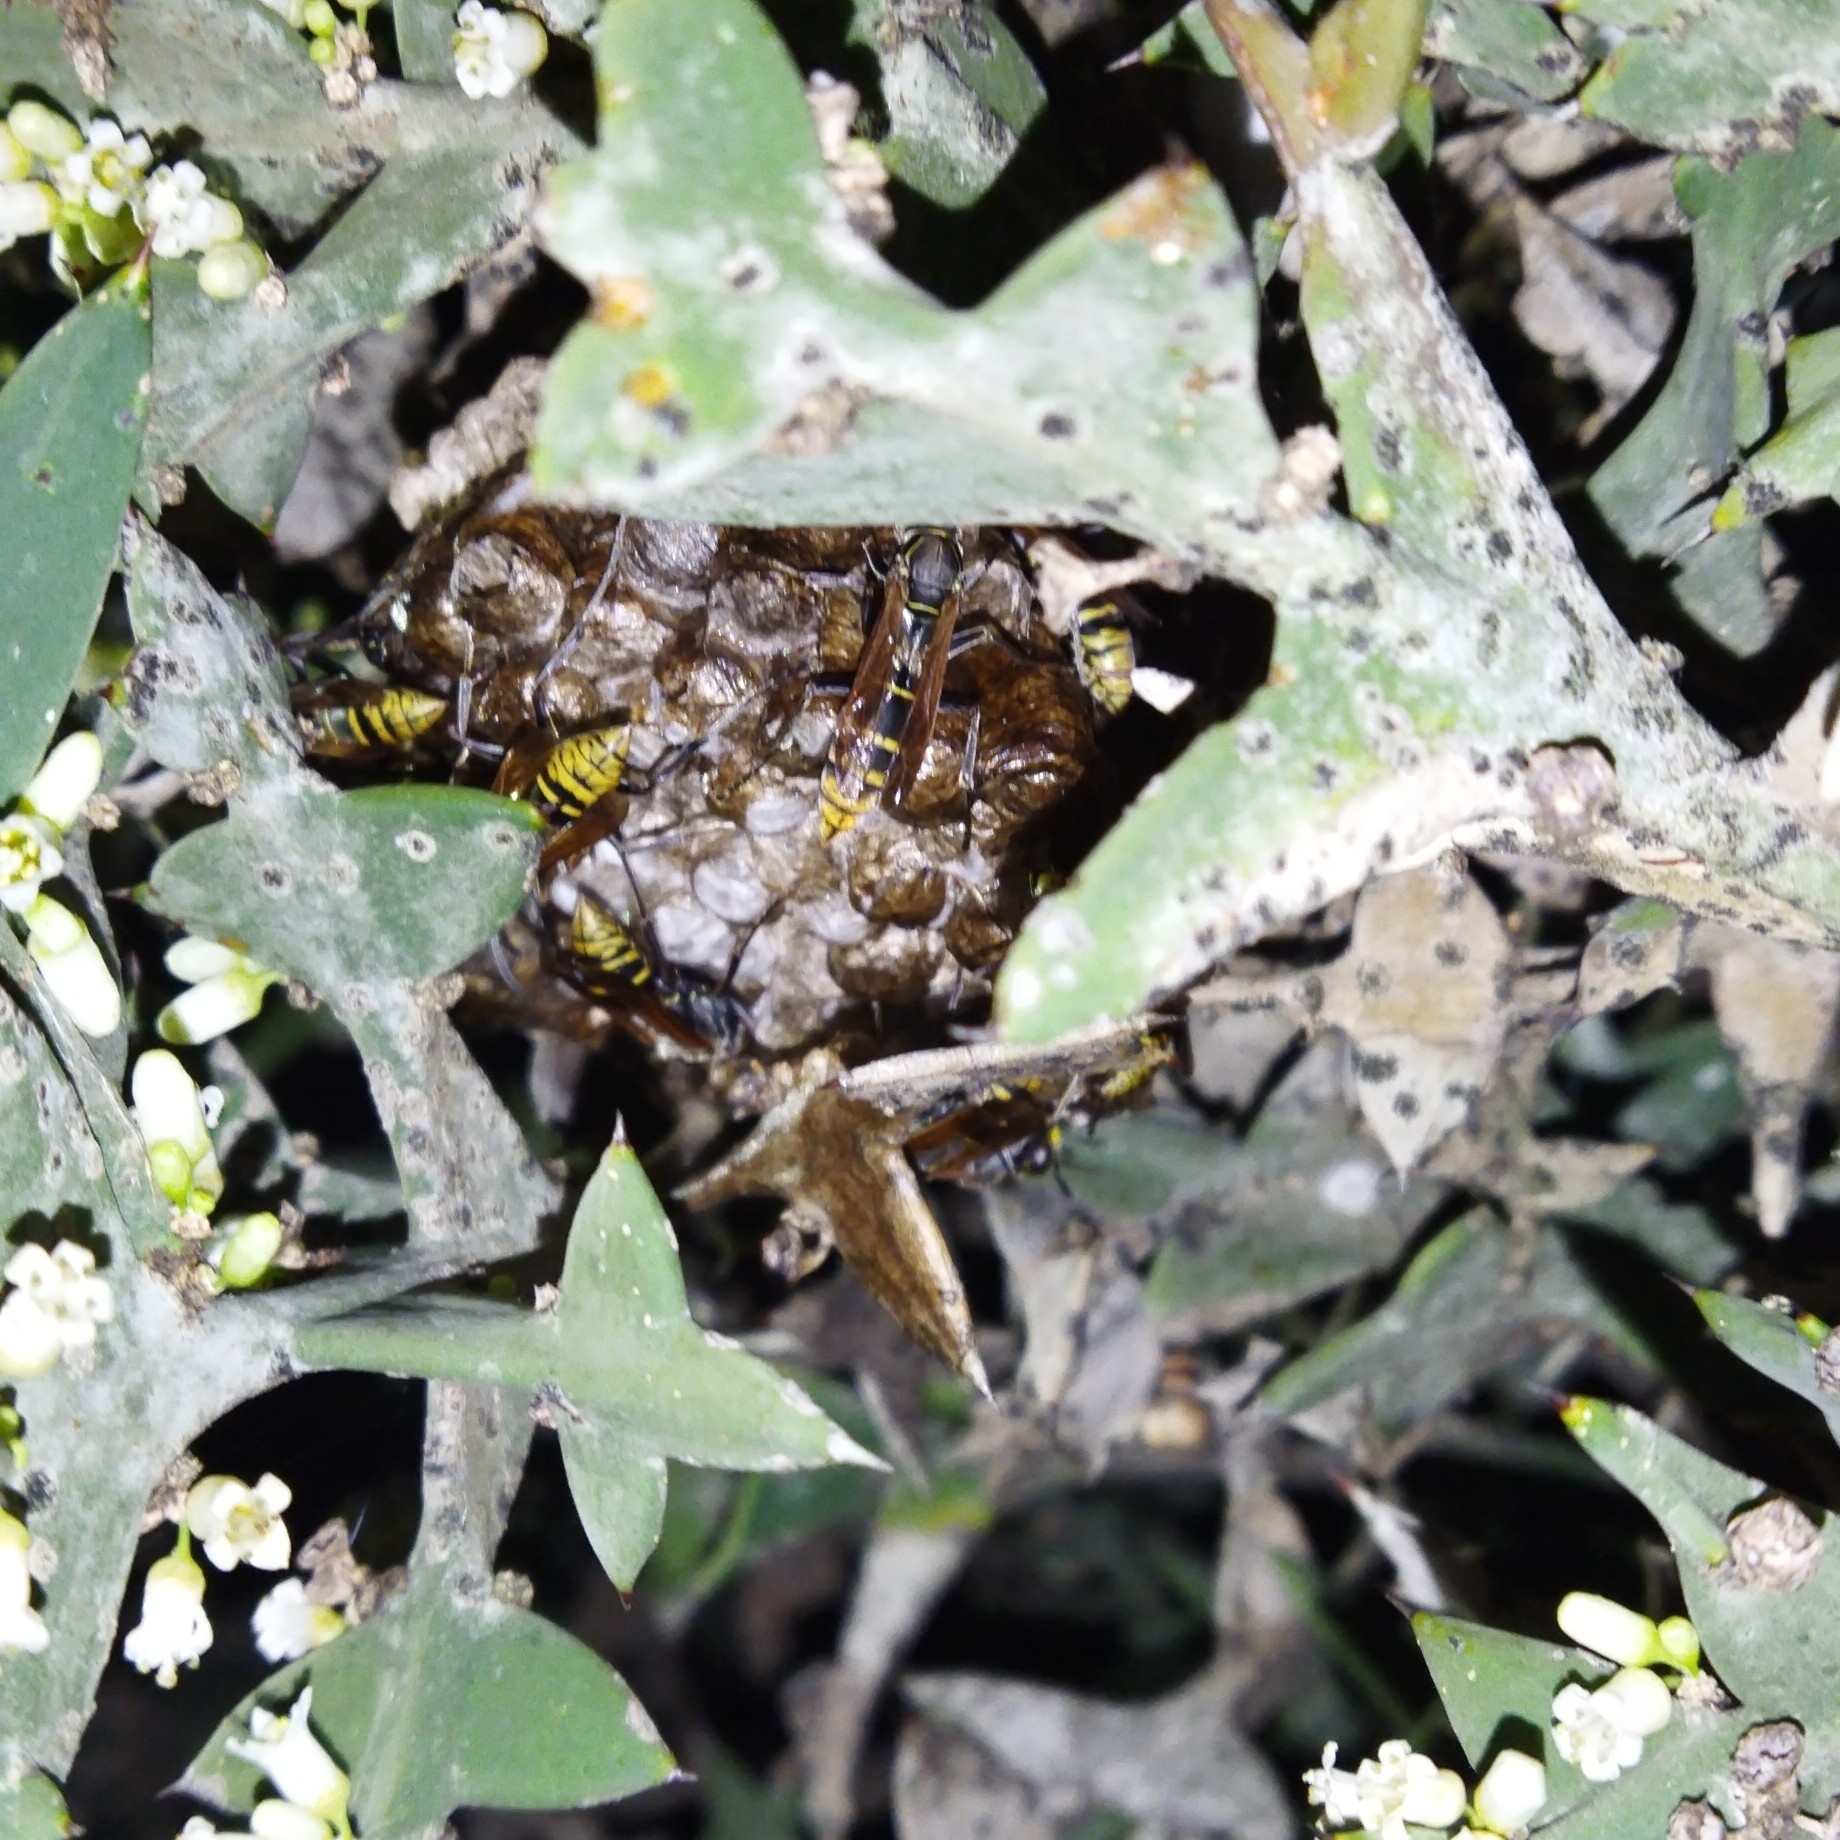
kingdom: Animalia
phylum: Arthropoda
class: Insecta
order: Hymenoptera
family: Eumenidae
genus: Polistes
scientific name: Polistes cinerascens
